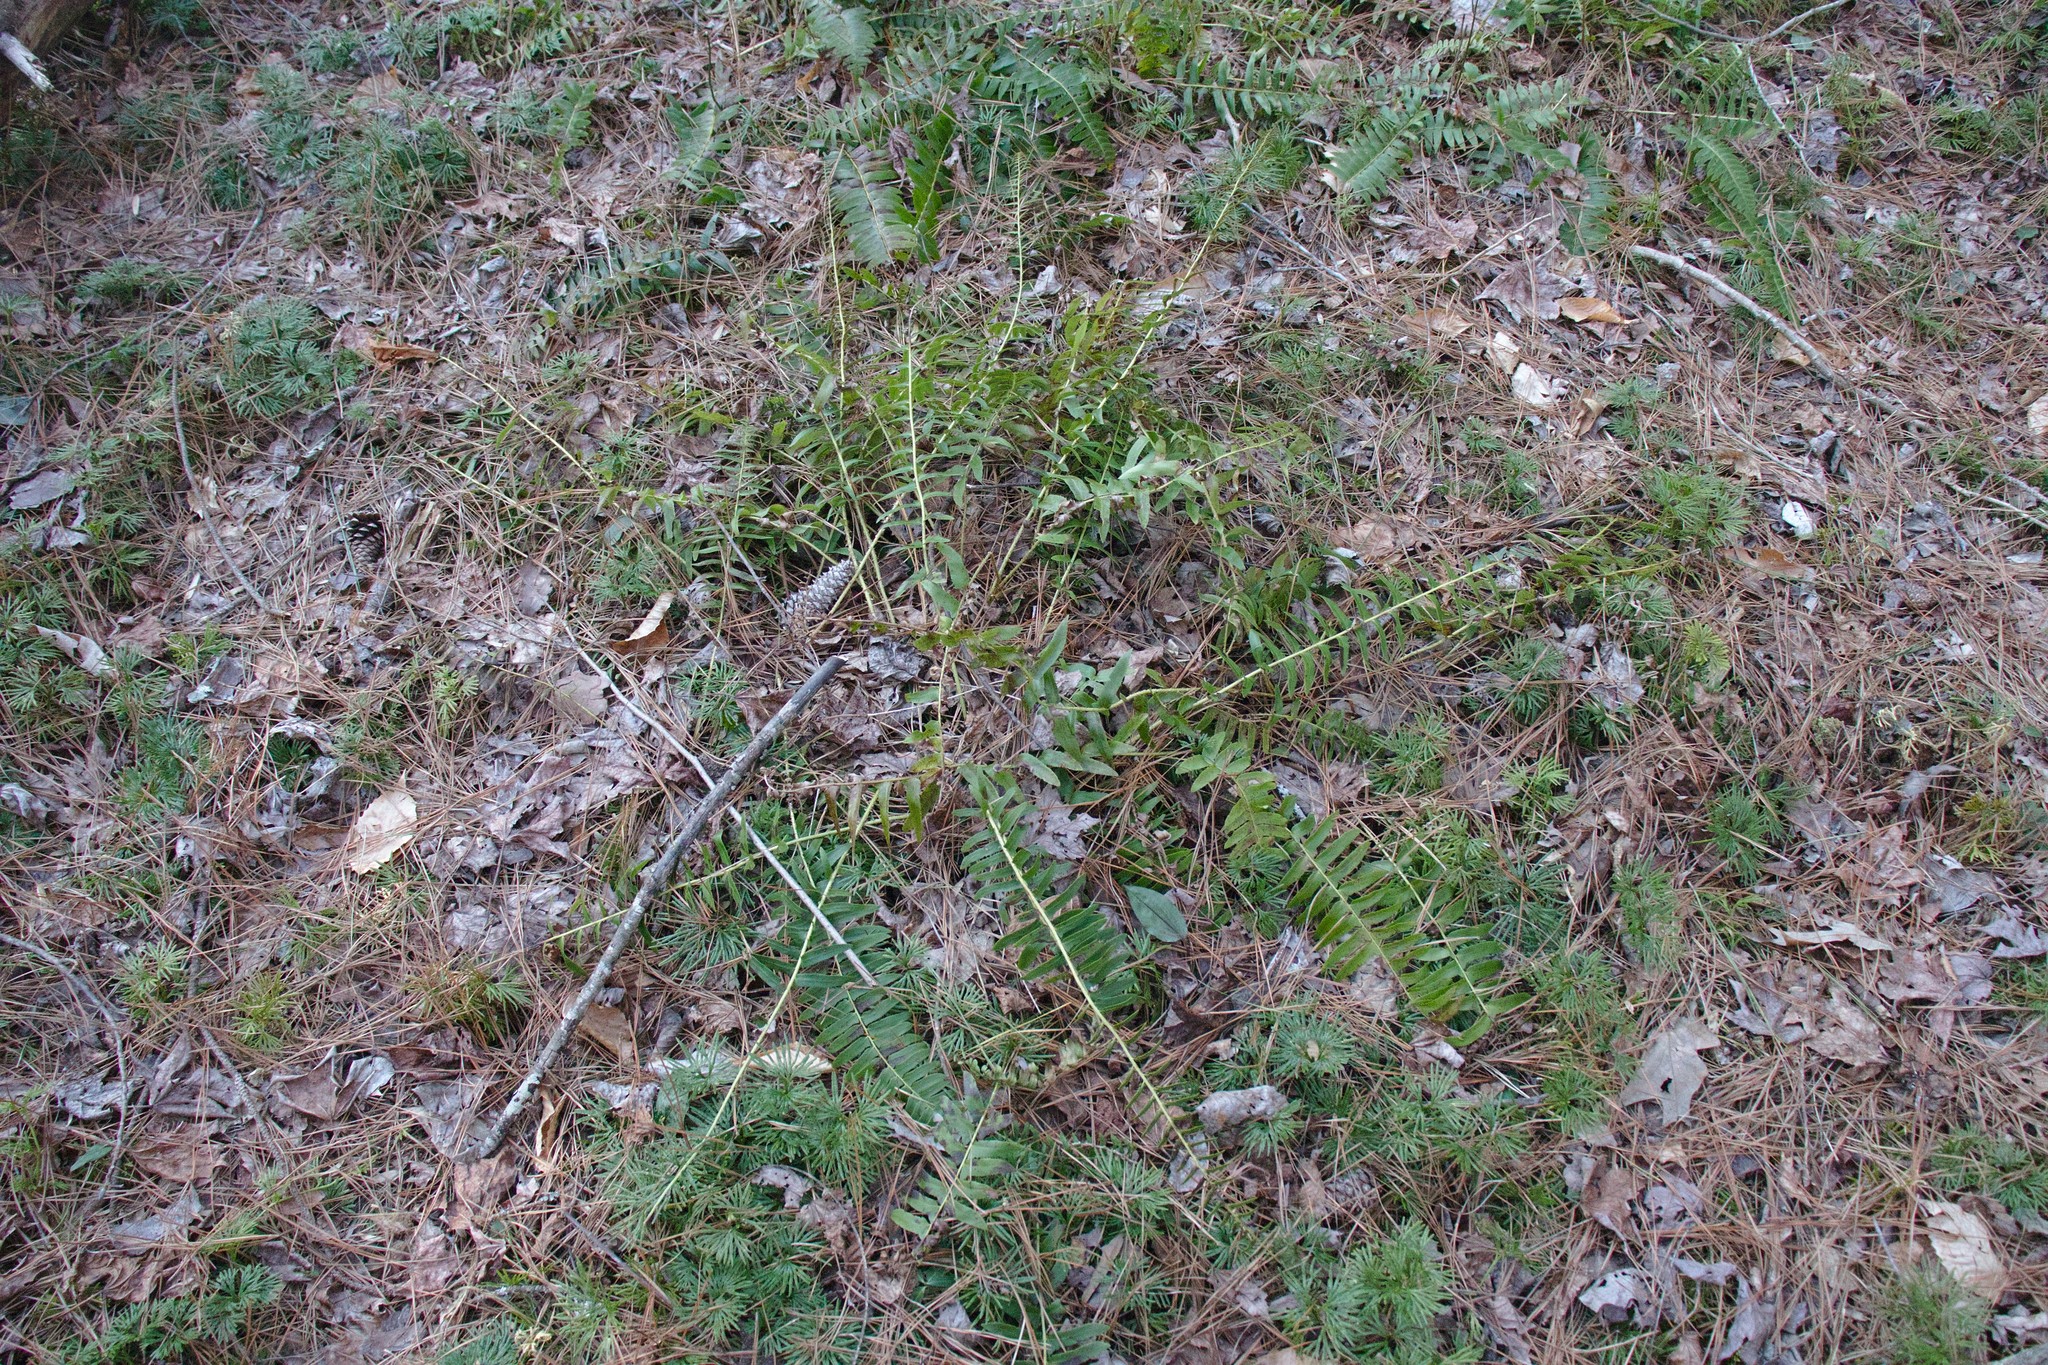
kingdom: Plantae
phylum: Tracheophyta
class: Polypodiopsida
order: Polypodiales
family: Dryopteridaceae
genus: Polystichum
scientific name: Polystichum acrostichoides
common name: Christmas fern
